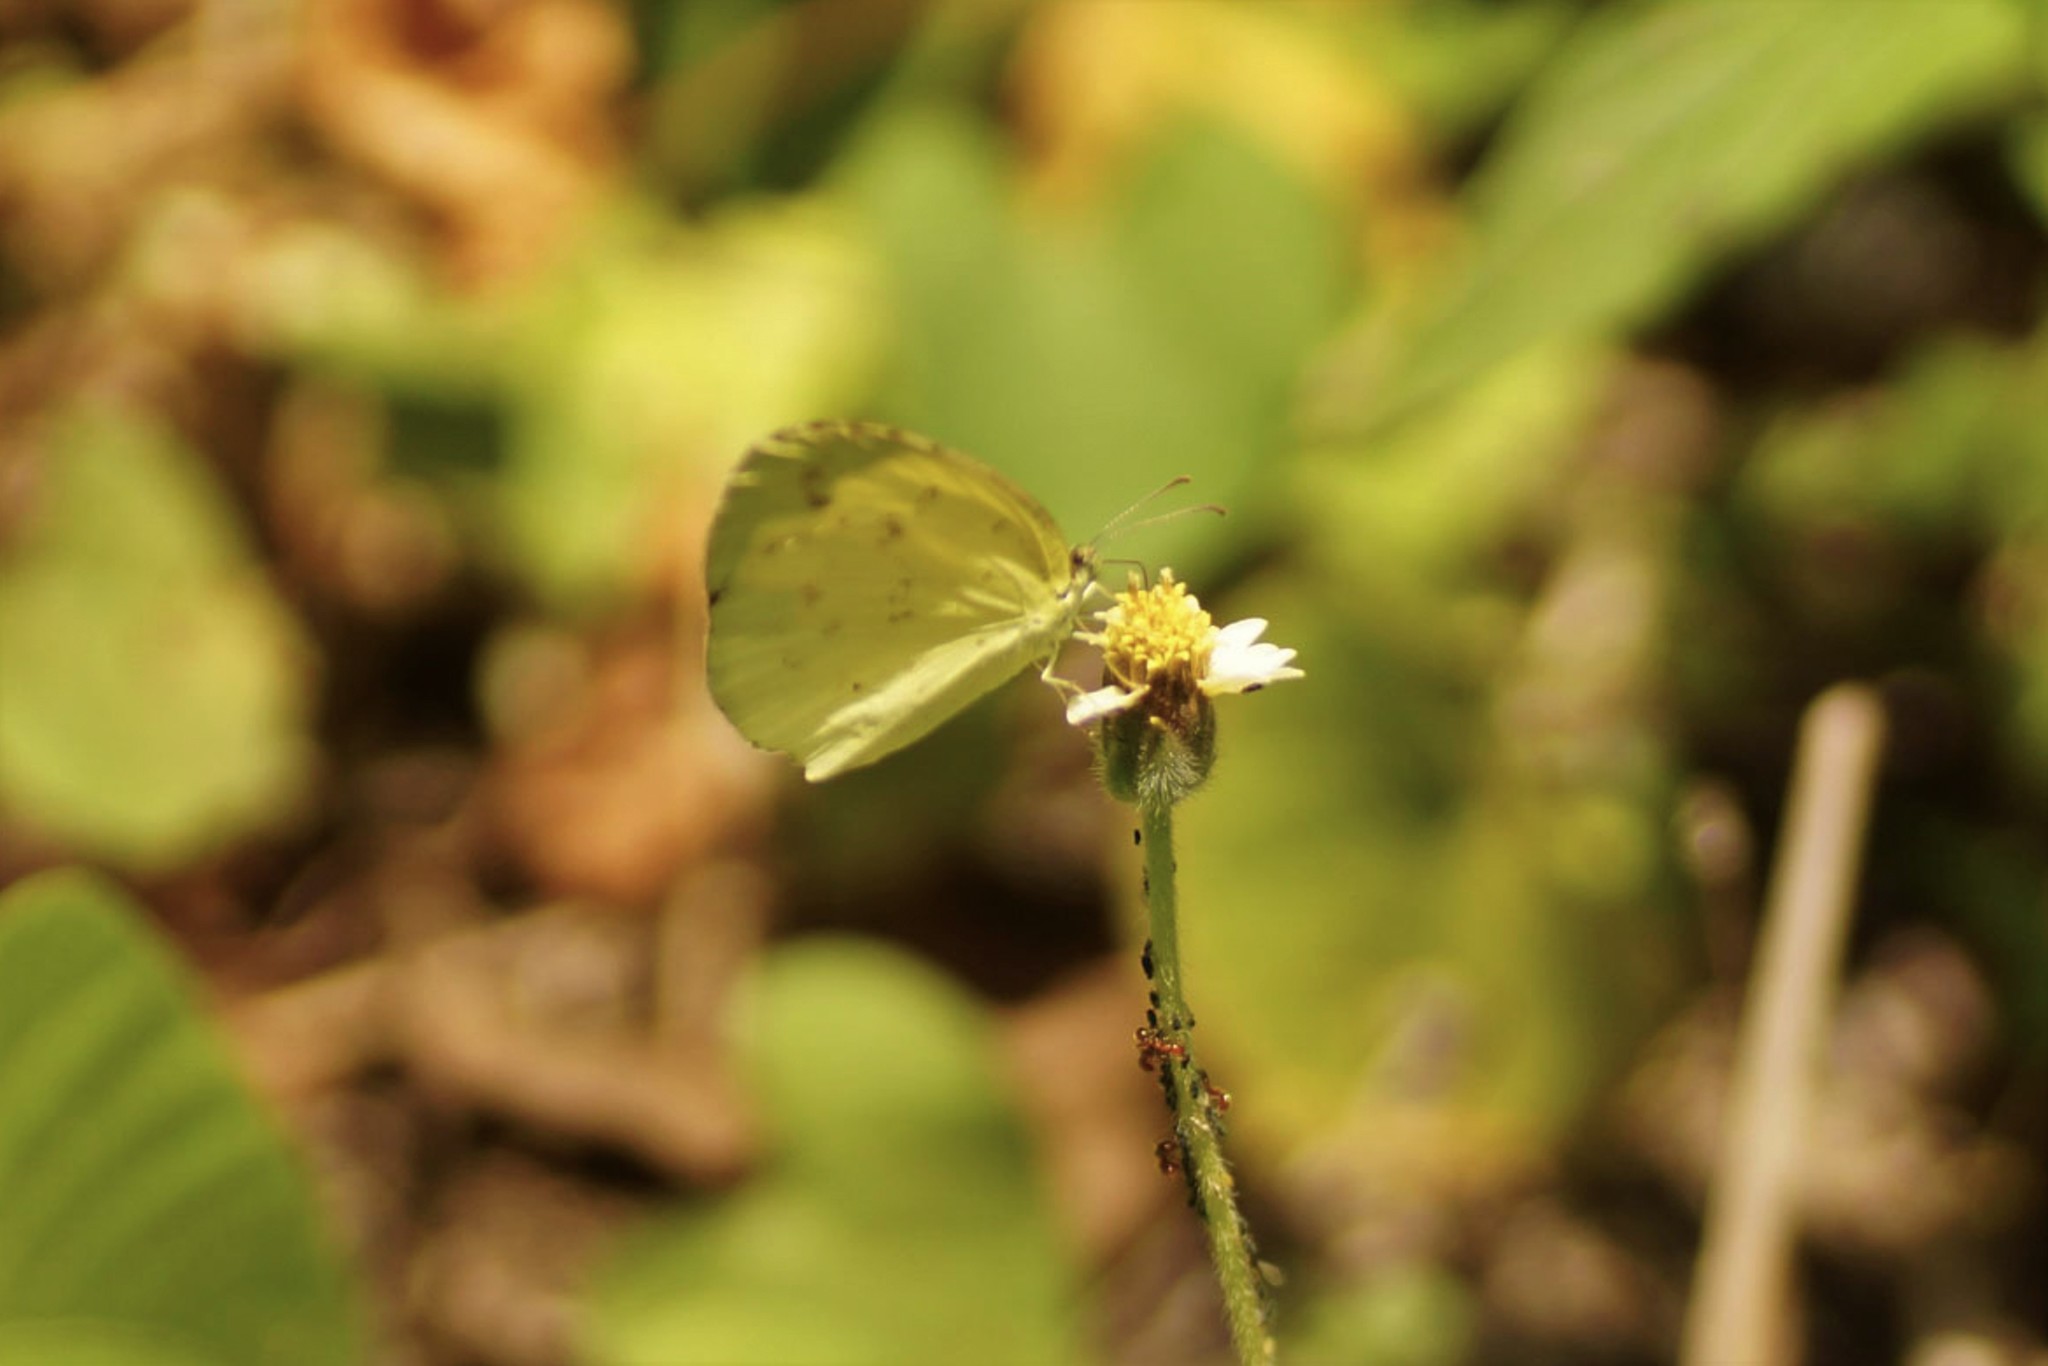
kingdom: Animalia
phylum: Arthropoda
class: Insecta
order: Lepidoptera
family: Pieridae
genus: Eurema
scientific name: Eurema hecabe
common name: Pale grass yellow
